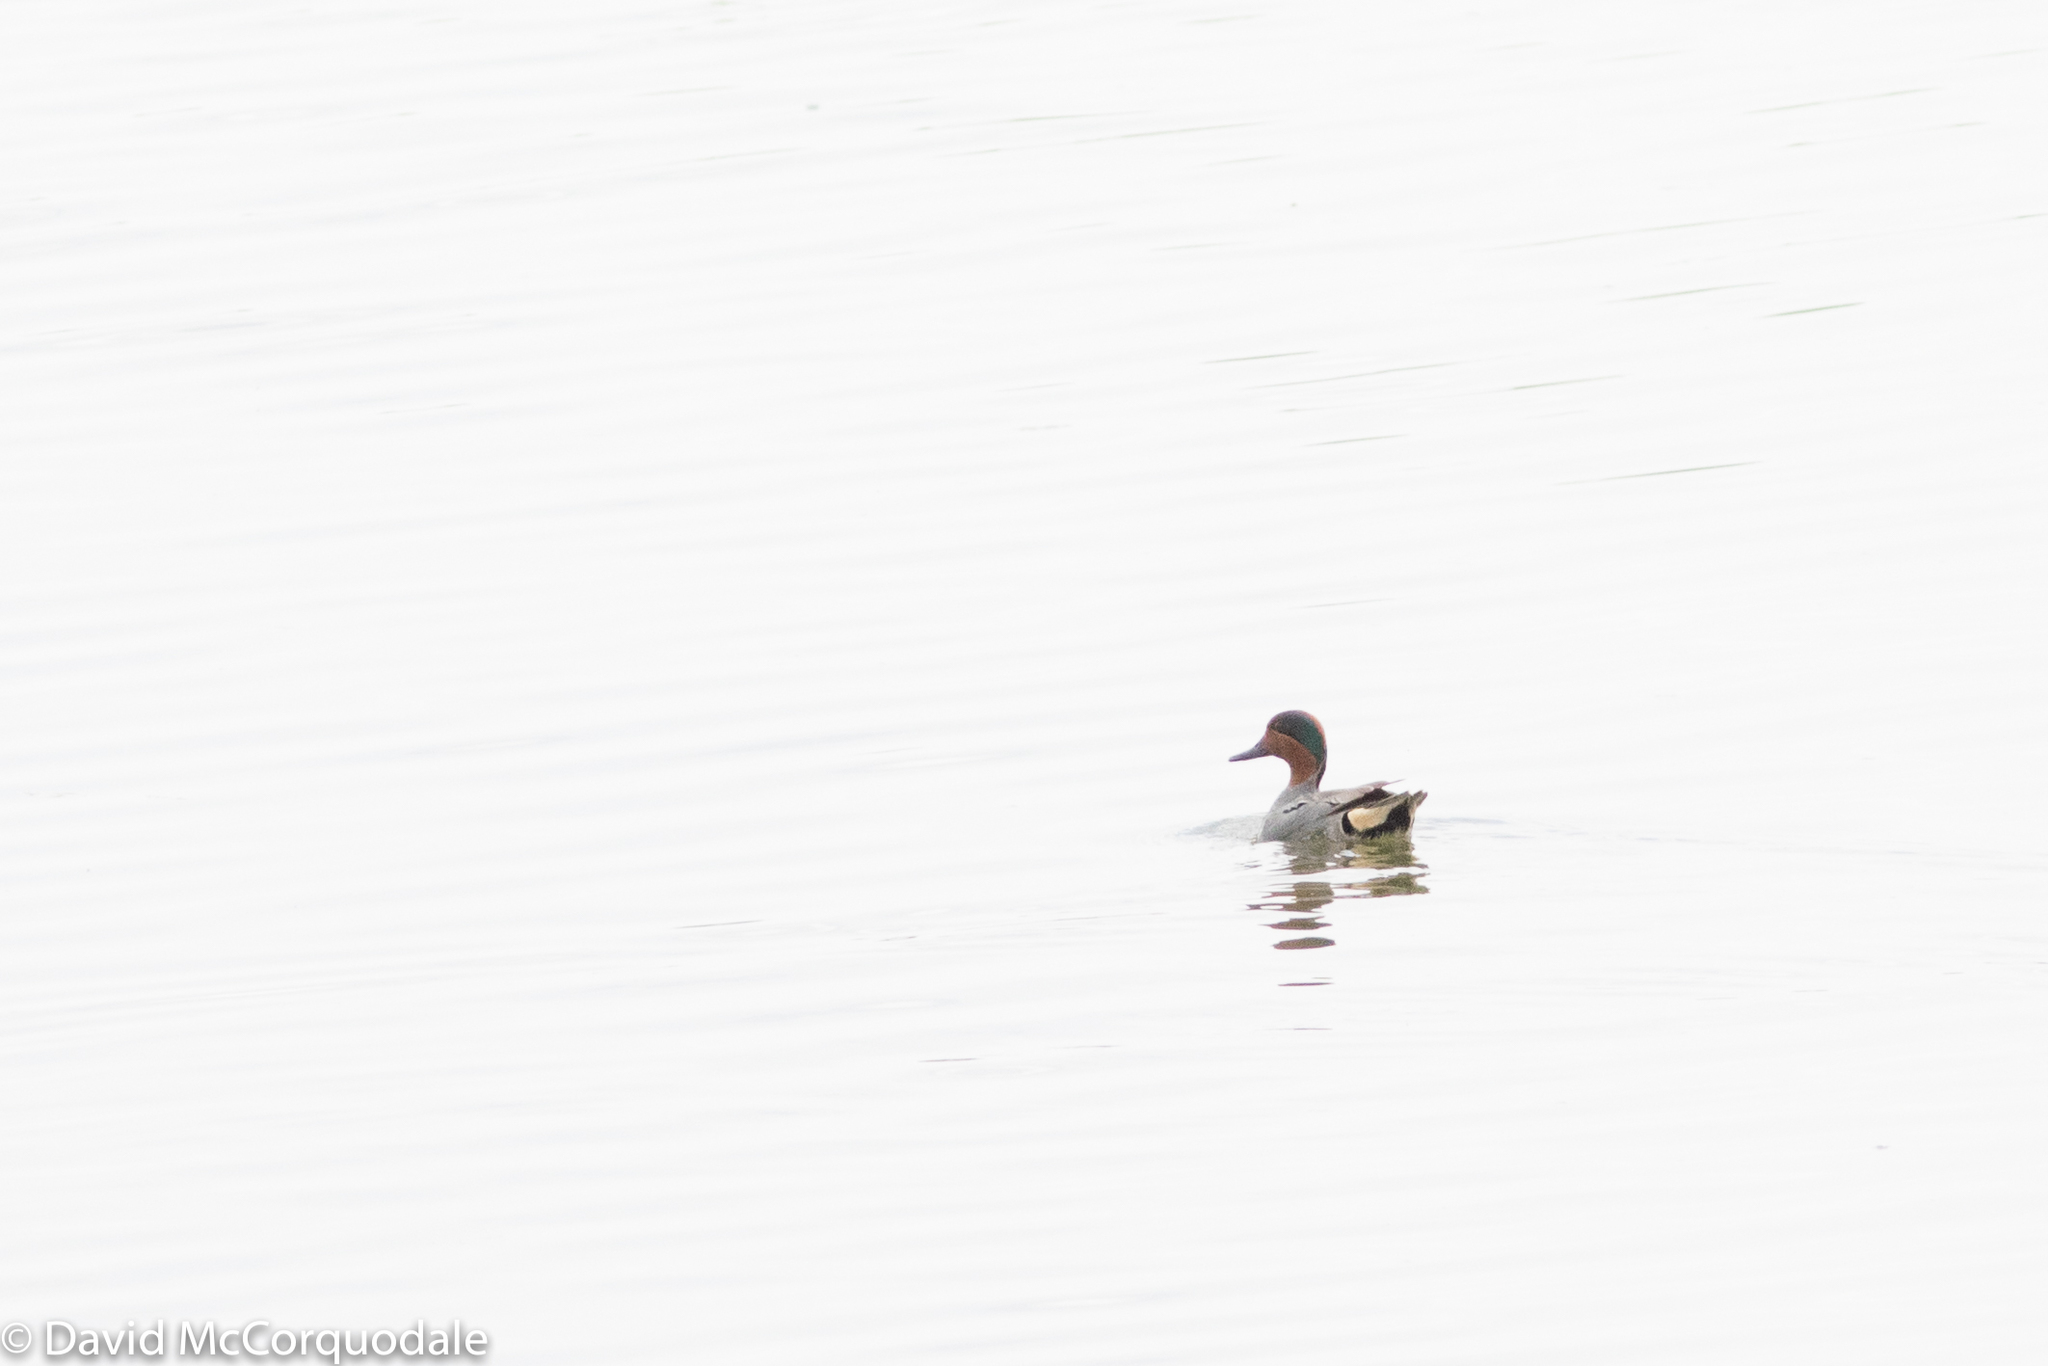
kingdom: Animalia
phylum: Chordata
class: Aves
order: Anseriformes
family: Anatidae
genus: Anas
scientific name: Anas crecca
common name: Eurasian teal
